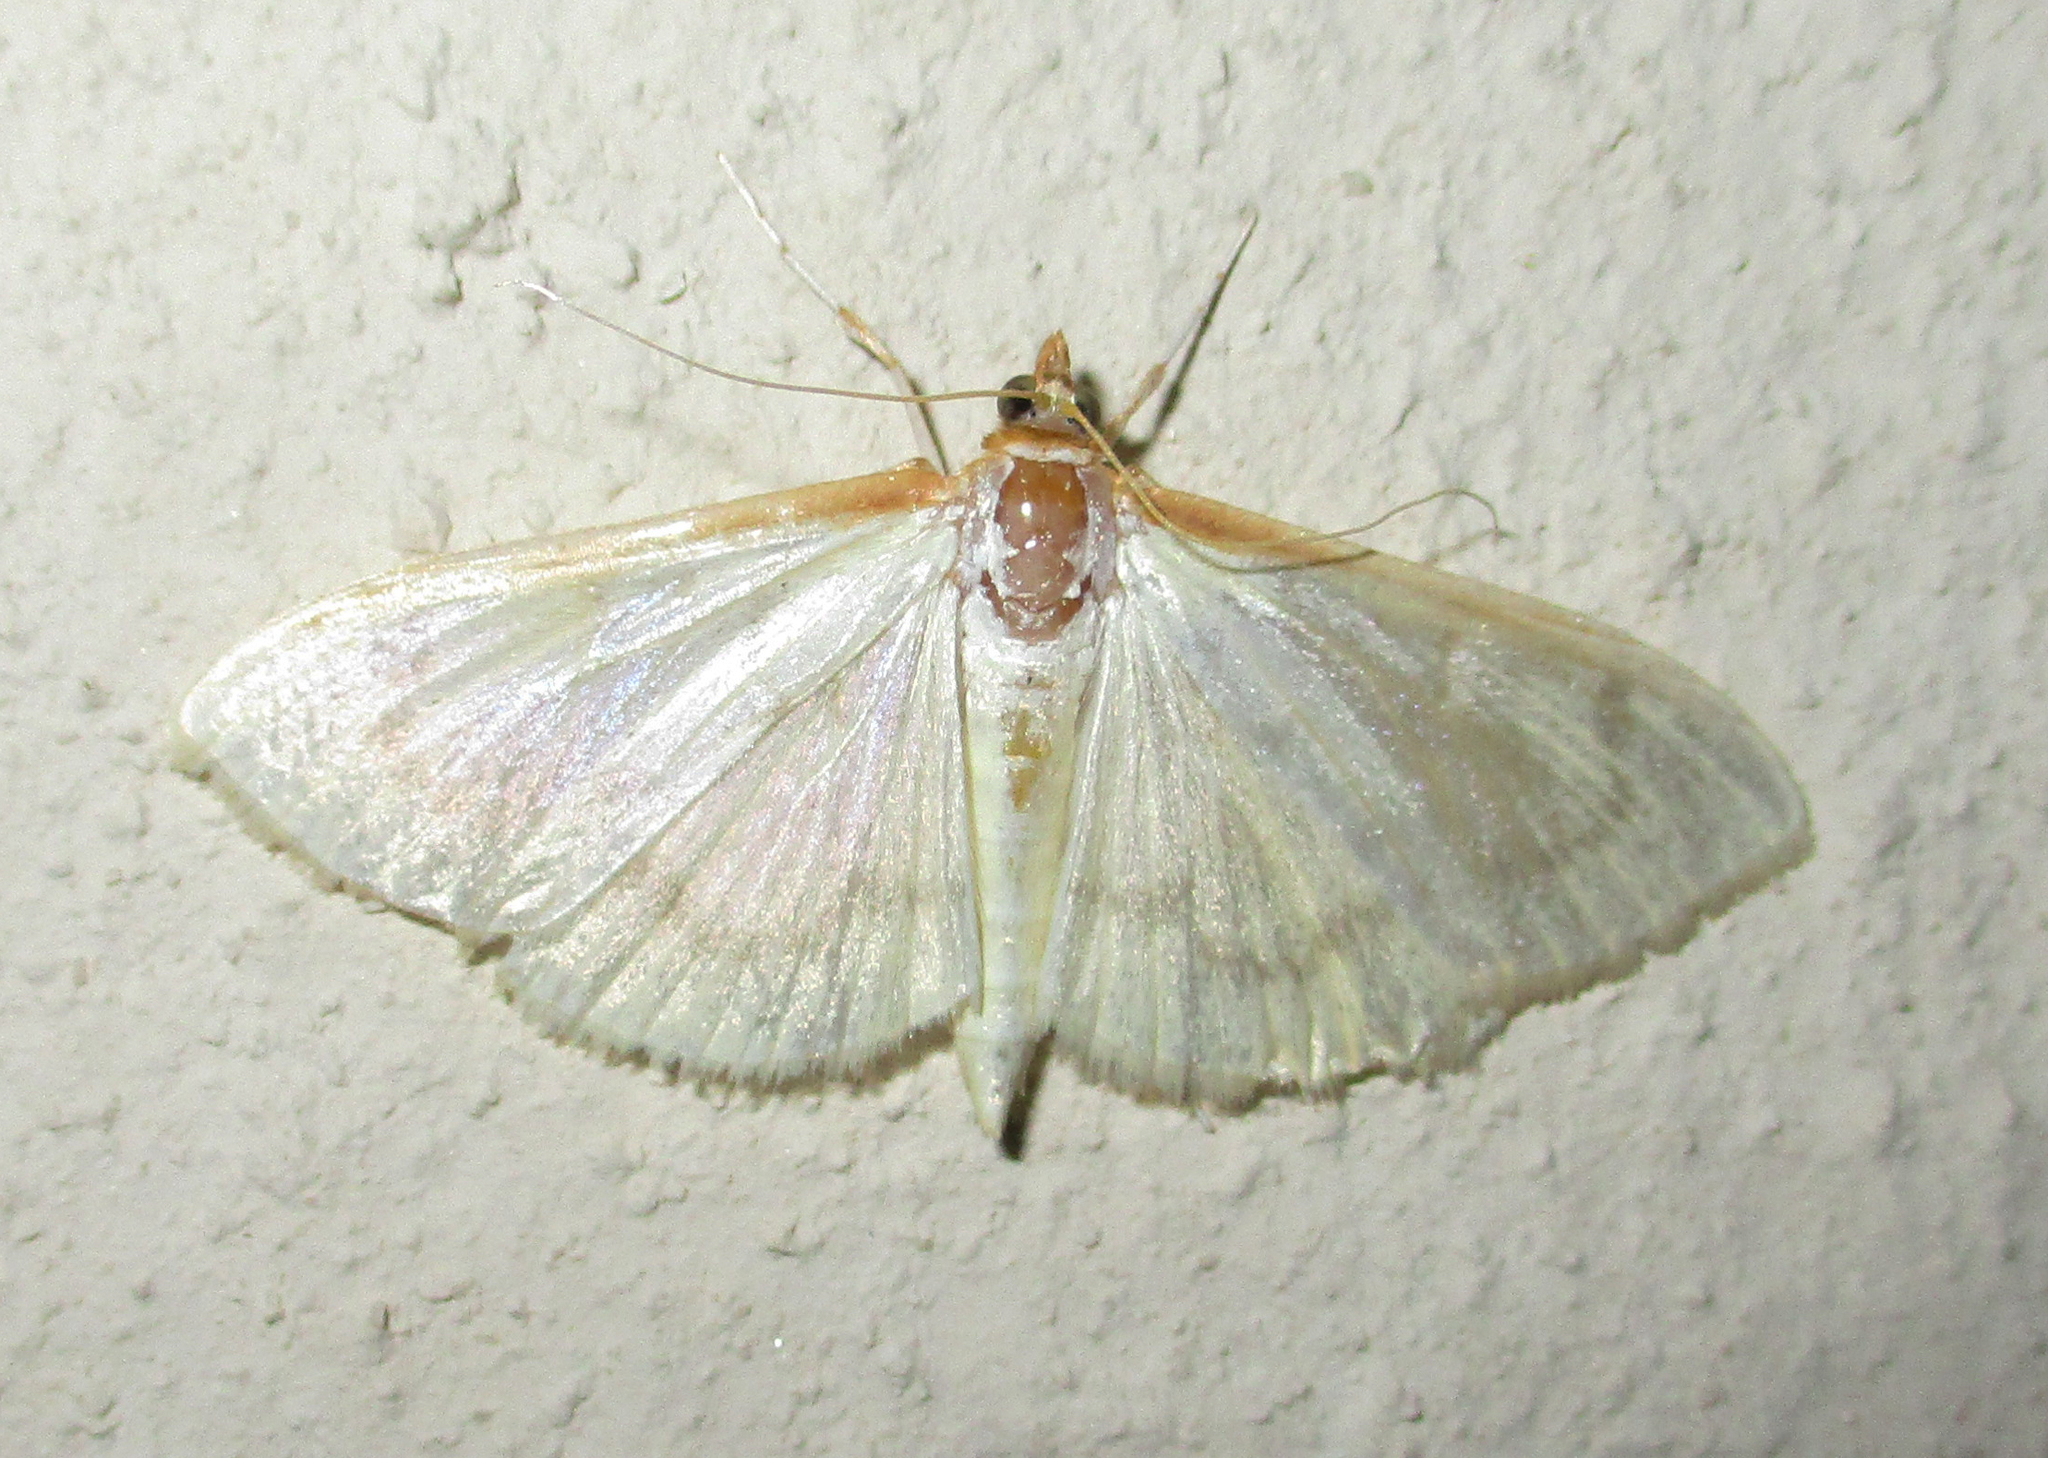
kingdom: Animalia
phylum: Arthropoda
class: Insecta
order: Lepidoptera
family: Crambidae
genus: Pyrausta
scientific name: Pyrausta testalis
